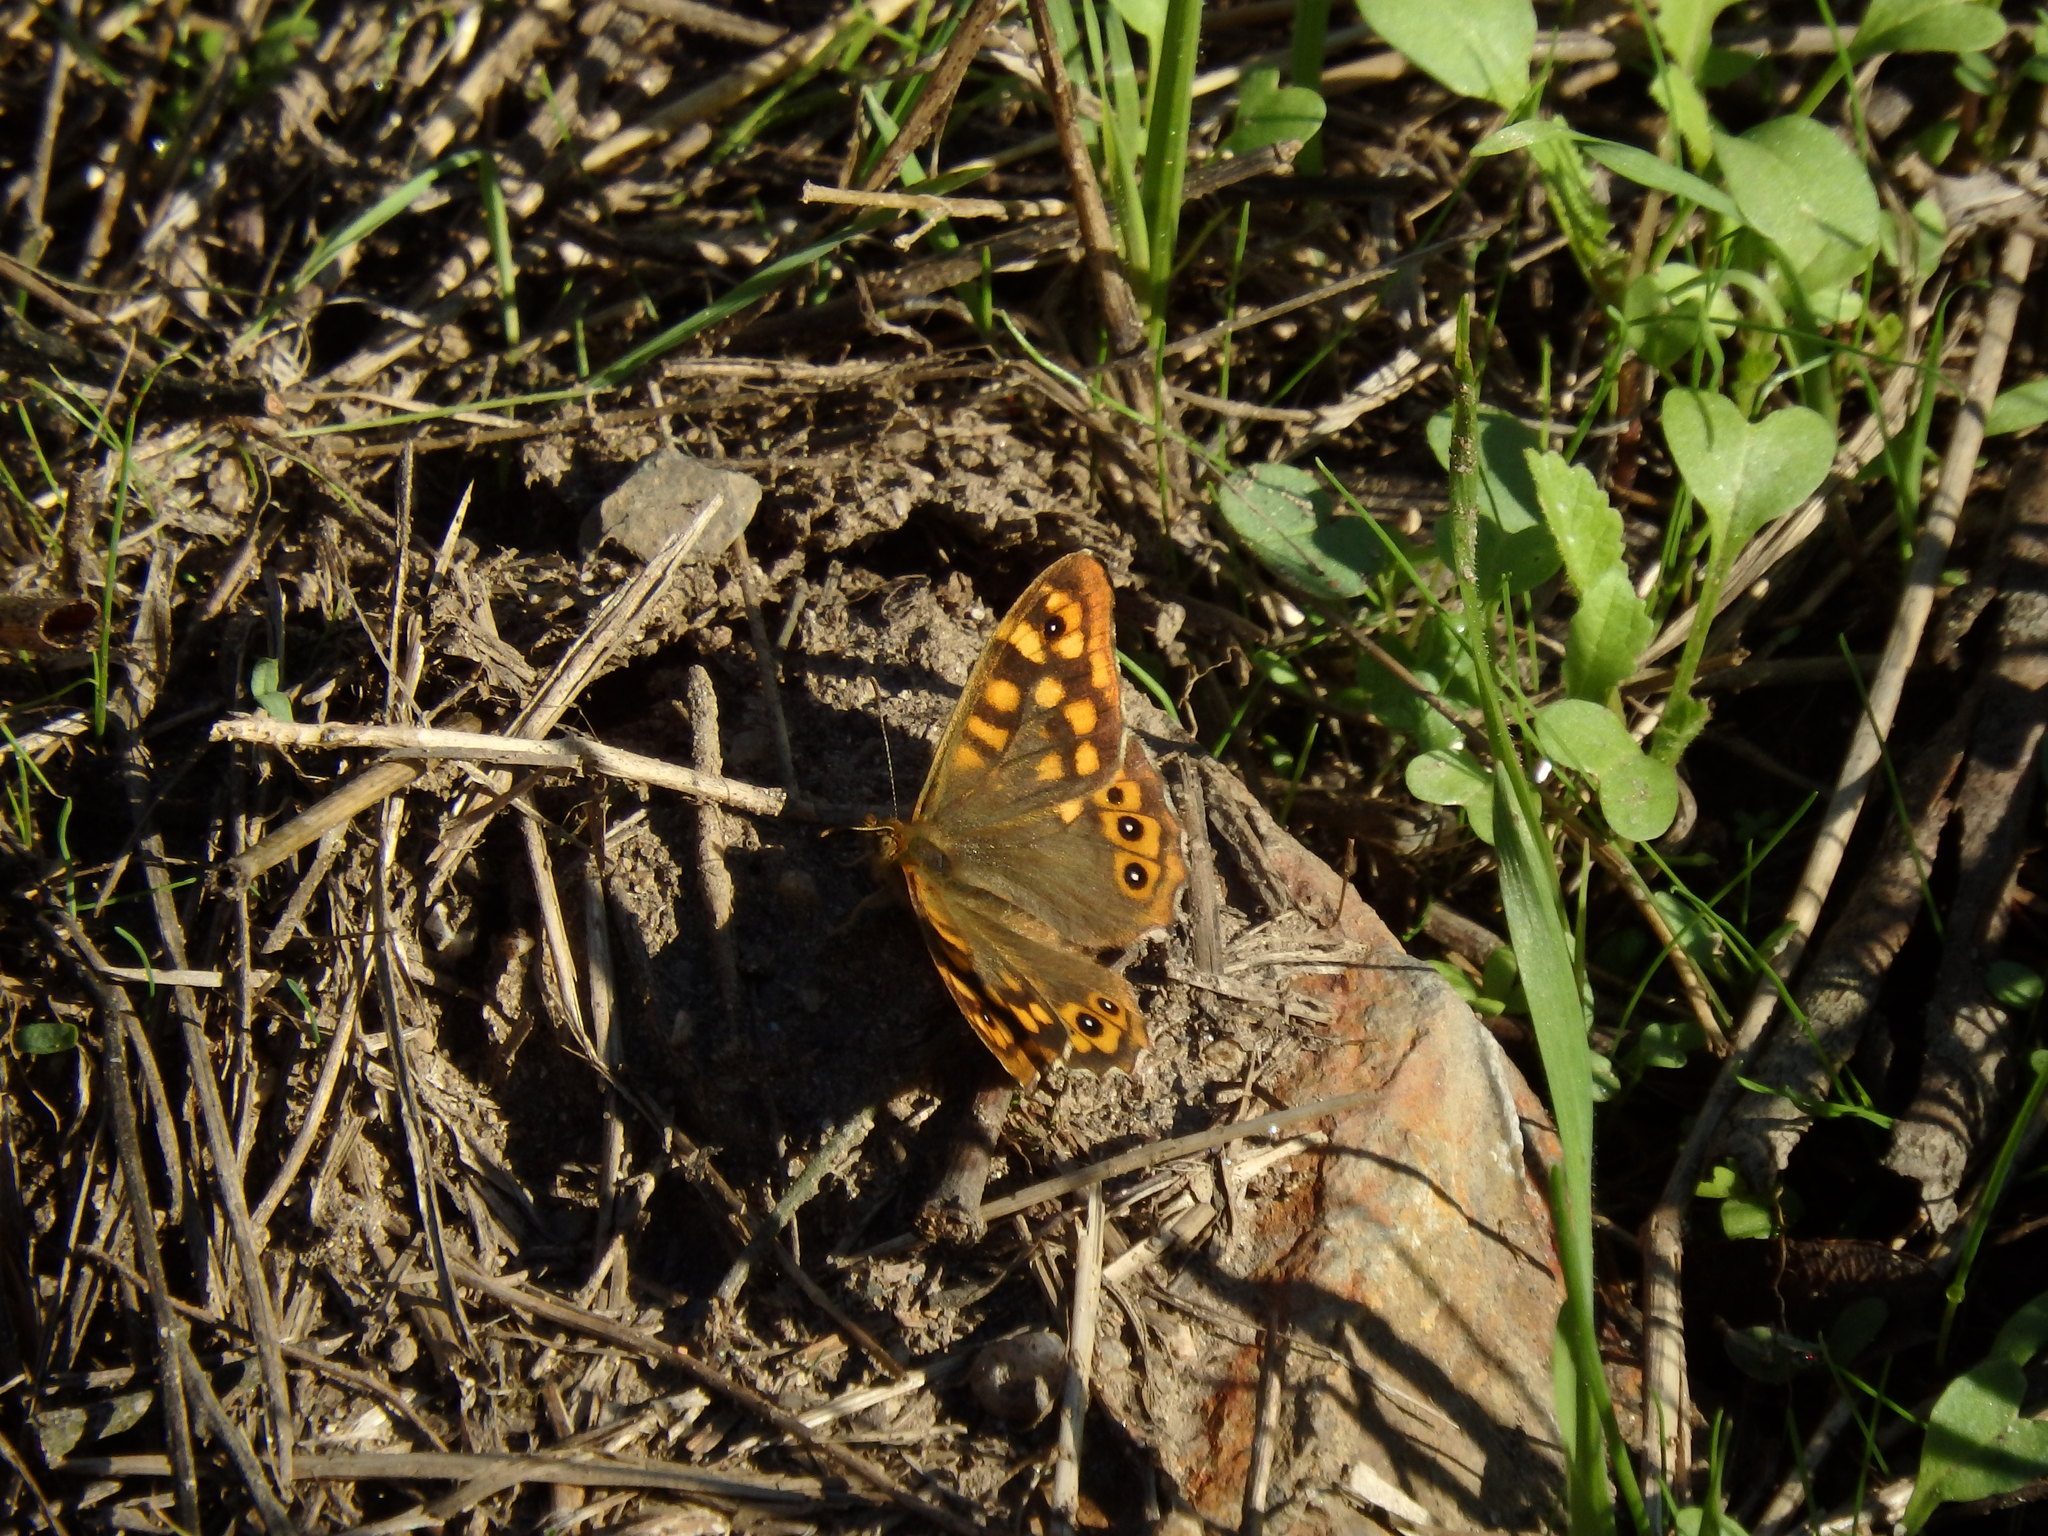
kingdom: Animalia
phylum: Arthropoda
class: Insecta
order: Lepidoptera
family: Nymphalidae
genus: Pararge
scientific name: Pararge aegeria
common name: Speckled wood
